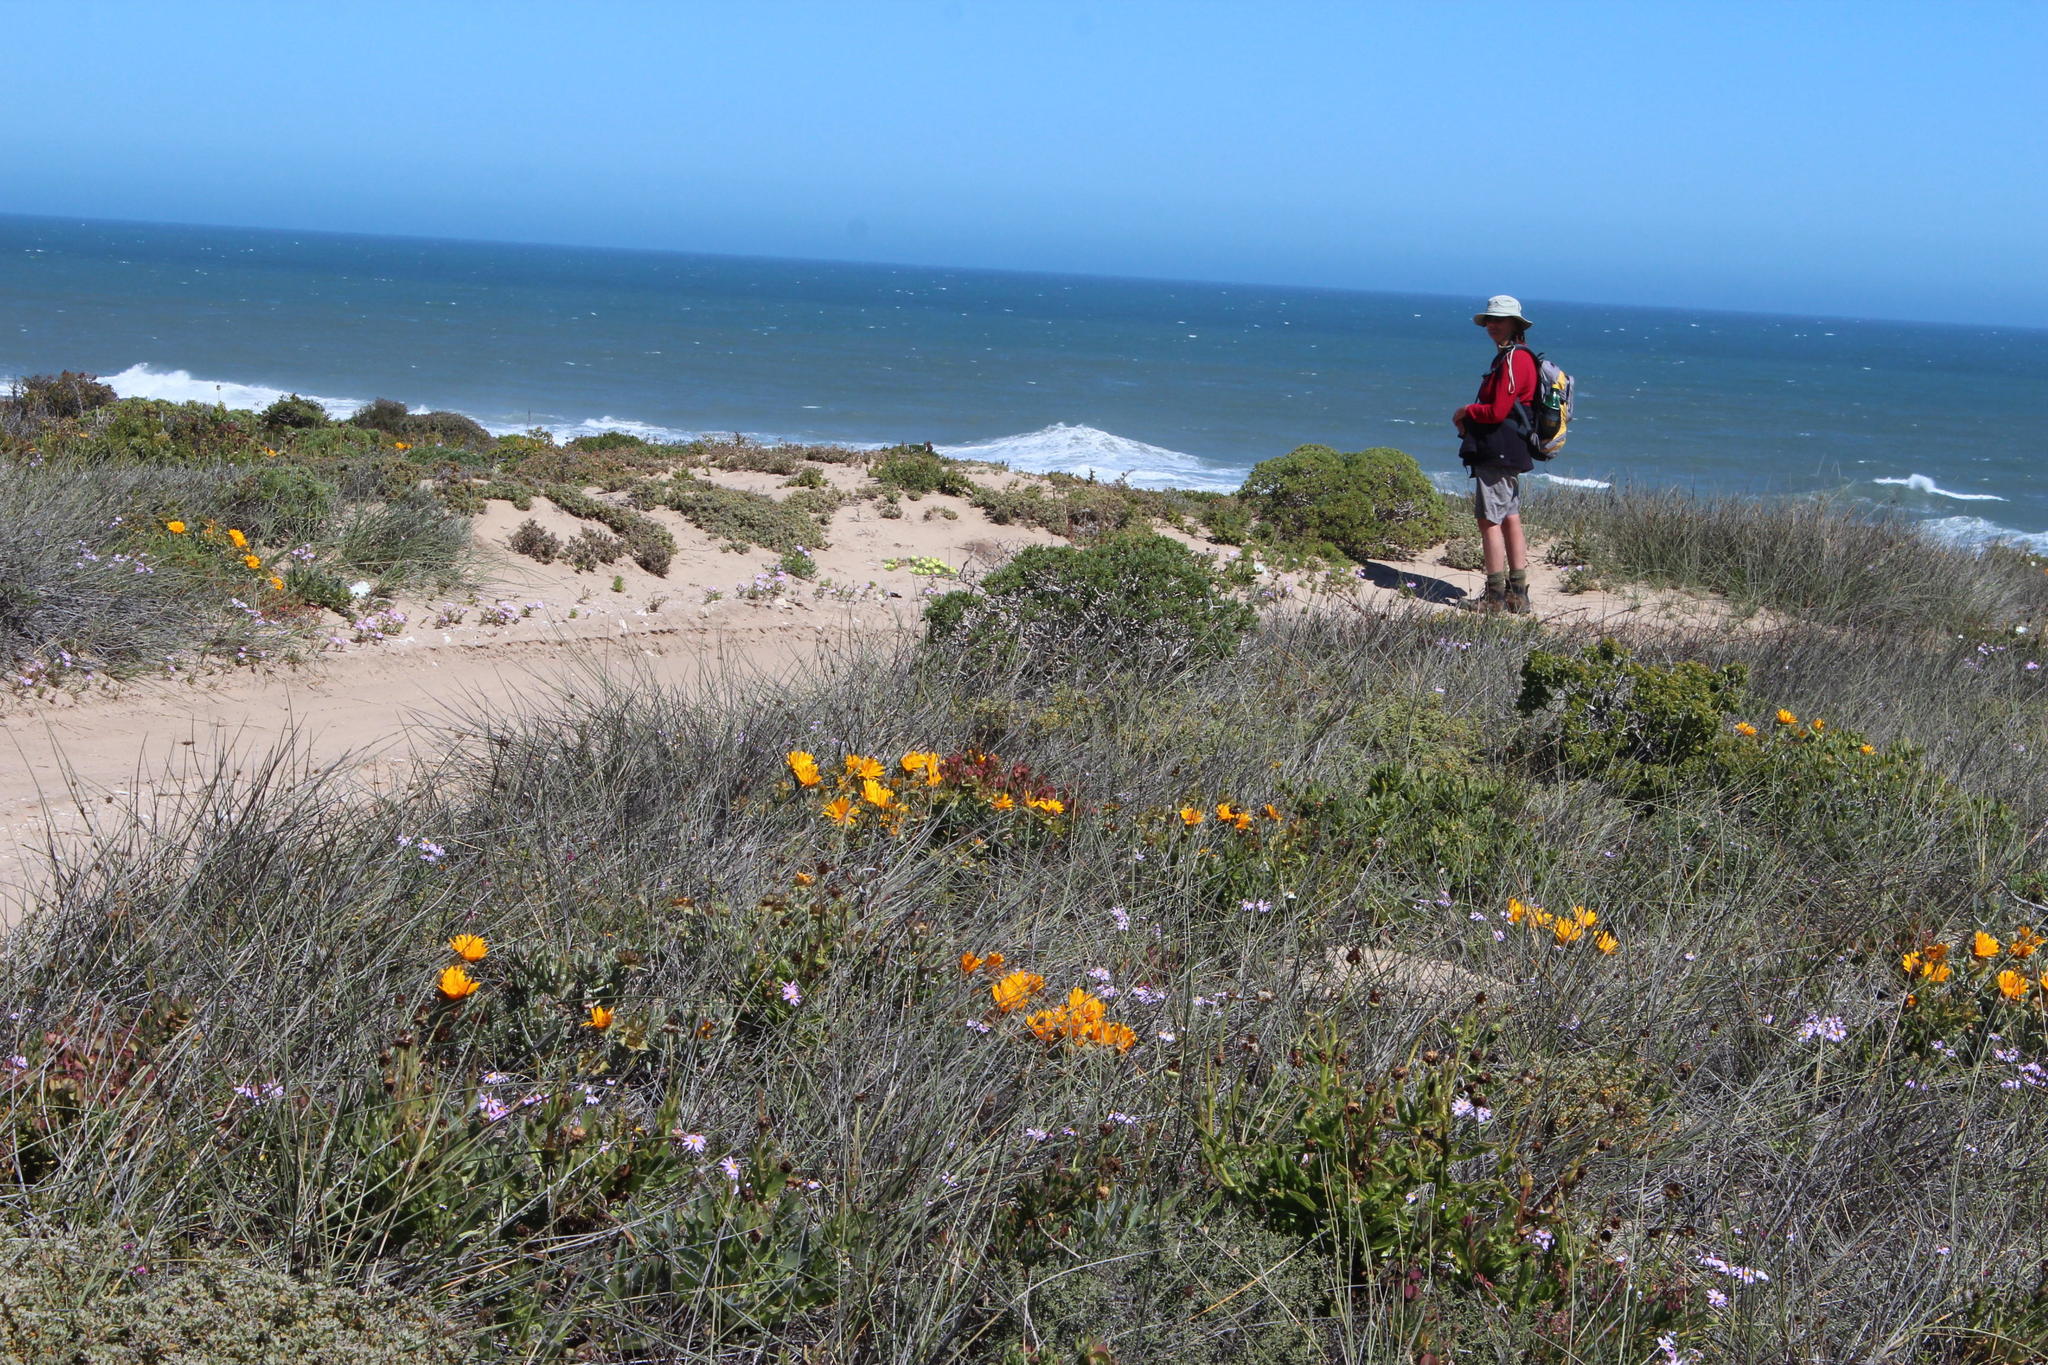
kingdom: Plantae
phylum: Tracheophyta
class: Liliopsida
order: Poales
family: Poaceae
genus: Cladoraphis
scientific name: Cladoraphis cyperoides
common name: Bristly lovegrass
